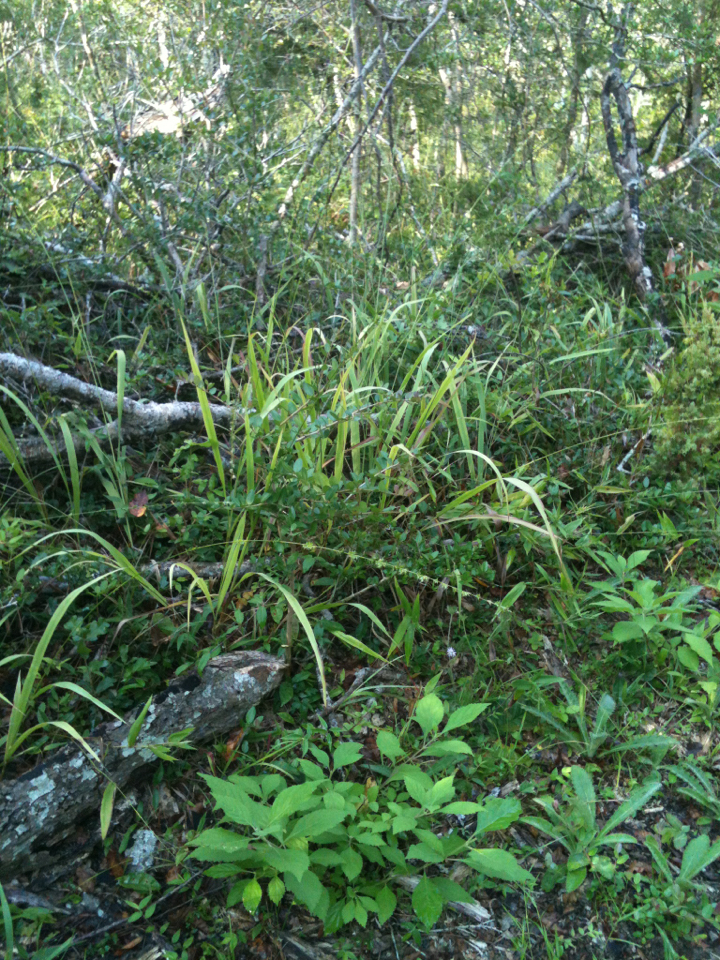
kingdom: Plantae
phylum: Tracheophyta
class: Liliopsida
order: Poales
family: Poaceae
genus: Chasmanthium
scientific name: Chasmanthium laxum
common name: Slender chasmanthium
